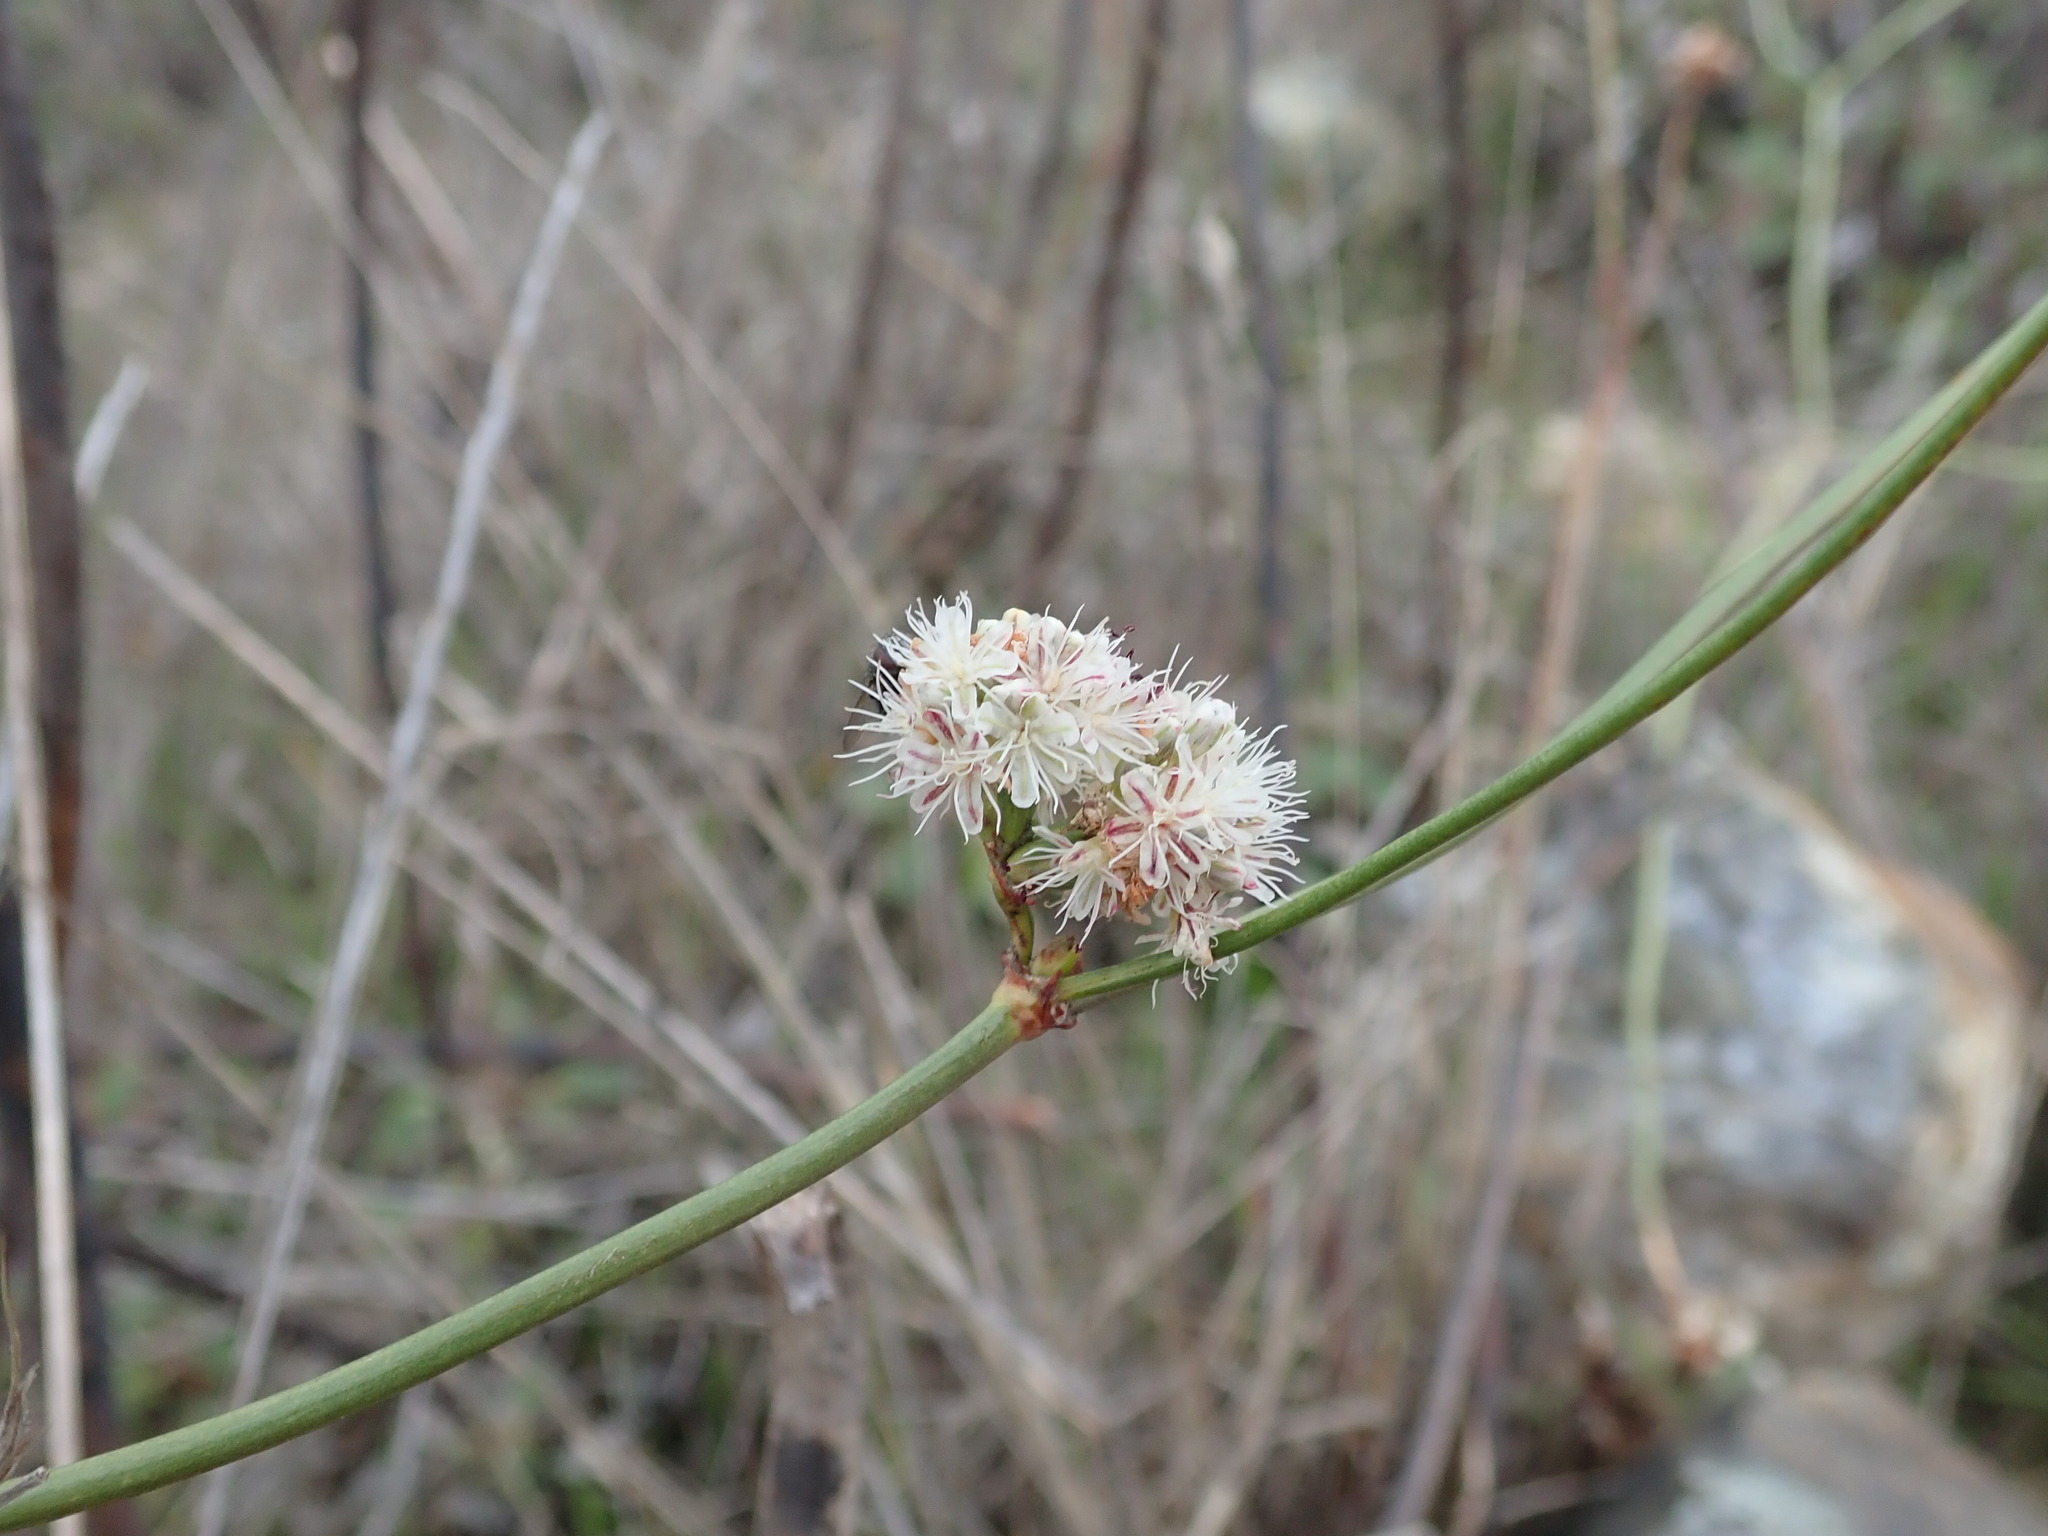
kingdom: Plantae
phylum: Tracheophyta
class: Magnoliopsida
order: Caryophyllales
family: Polygonaceae
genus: Eriogonum
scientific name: Eriogonum nudum
